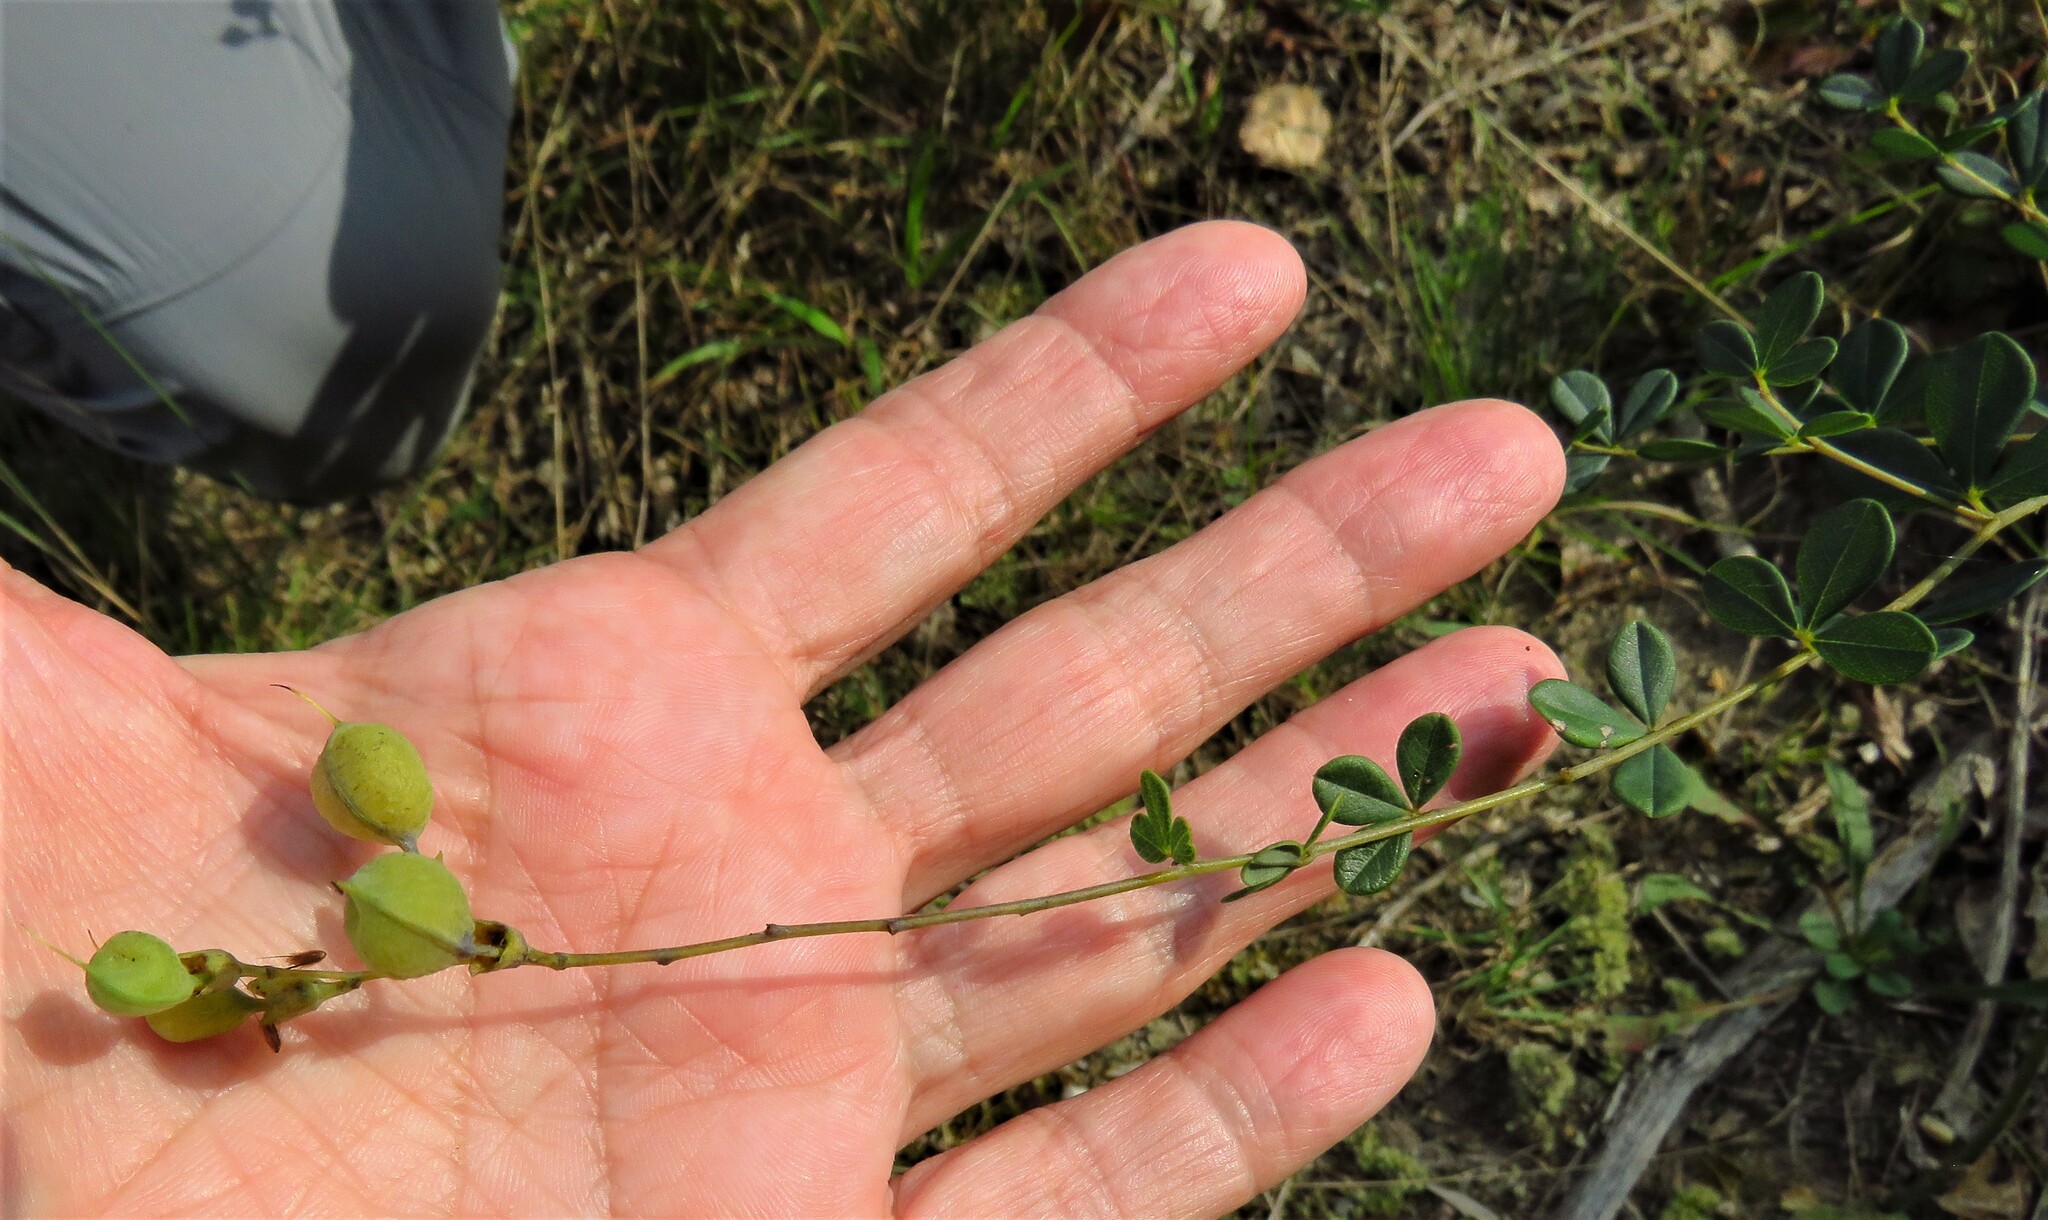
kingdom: Plantae
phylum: Tracheophyta
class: Magnoliopsida
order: Fabales
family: Fabaceae
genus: Baptisia
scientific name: Baptisia tinctoria
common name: Wild indigo
